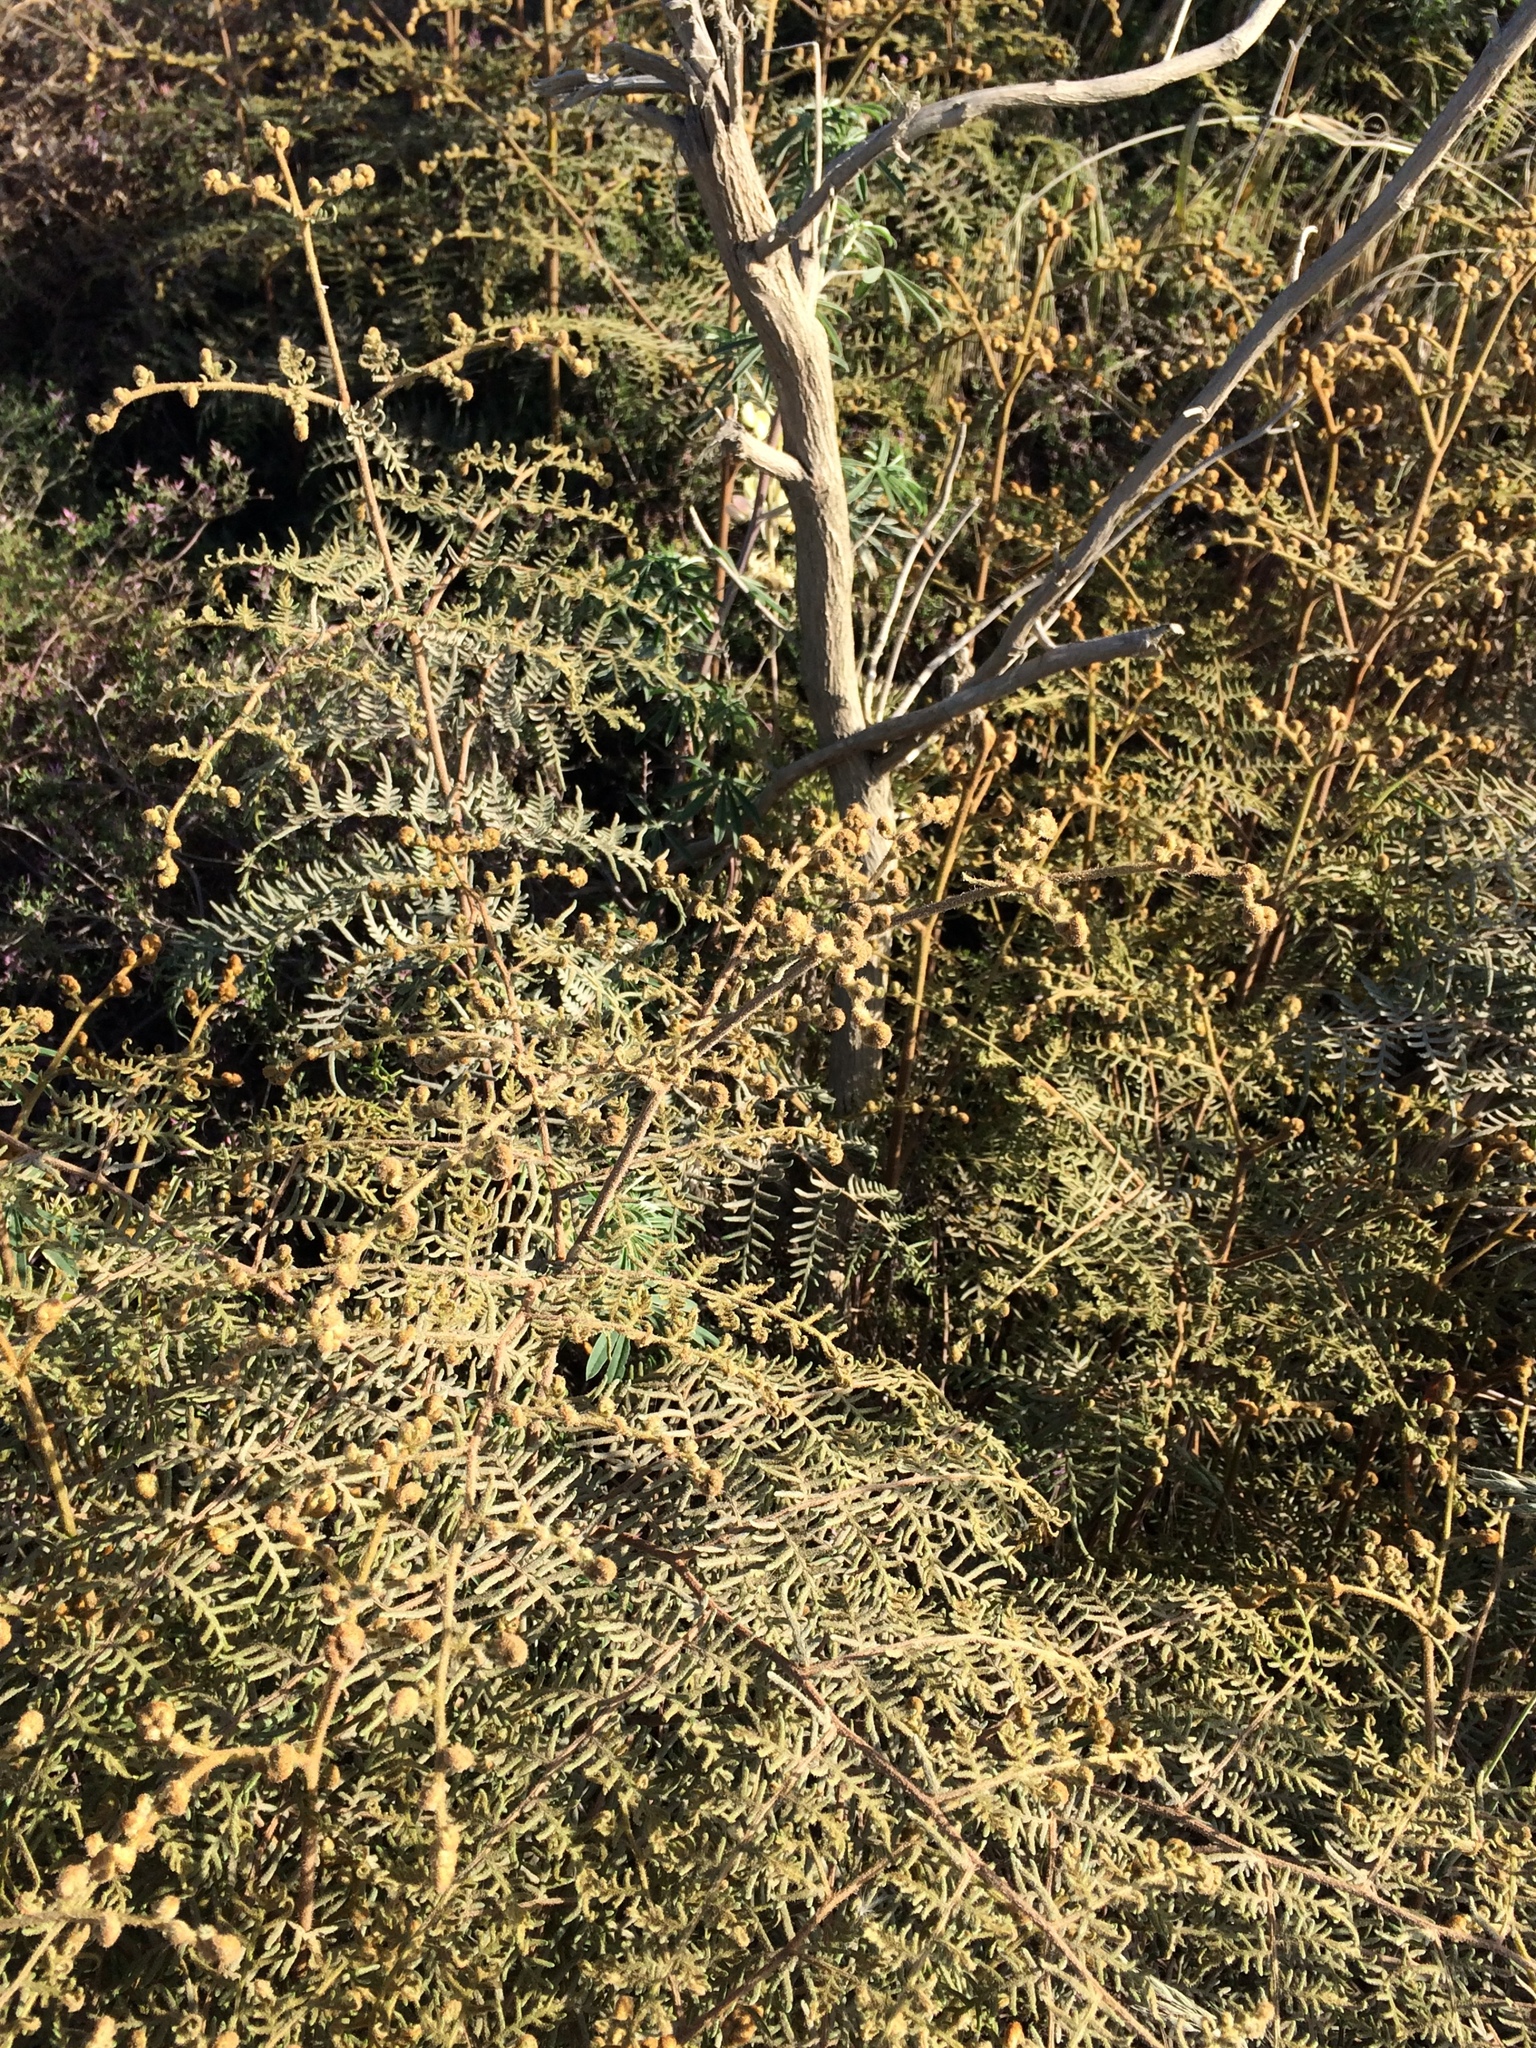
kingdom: Plantae
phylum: Tracheophyta
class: Polypodiopsida
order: Polypodiales
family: Dennstaedtiaceae
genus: Pteridium
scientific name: Pteridium esculentum
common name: Bracken fern
